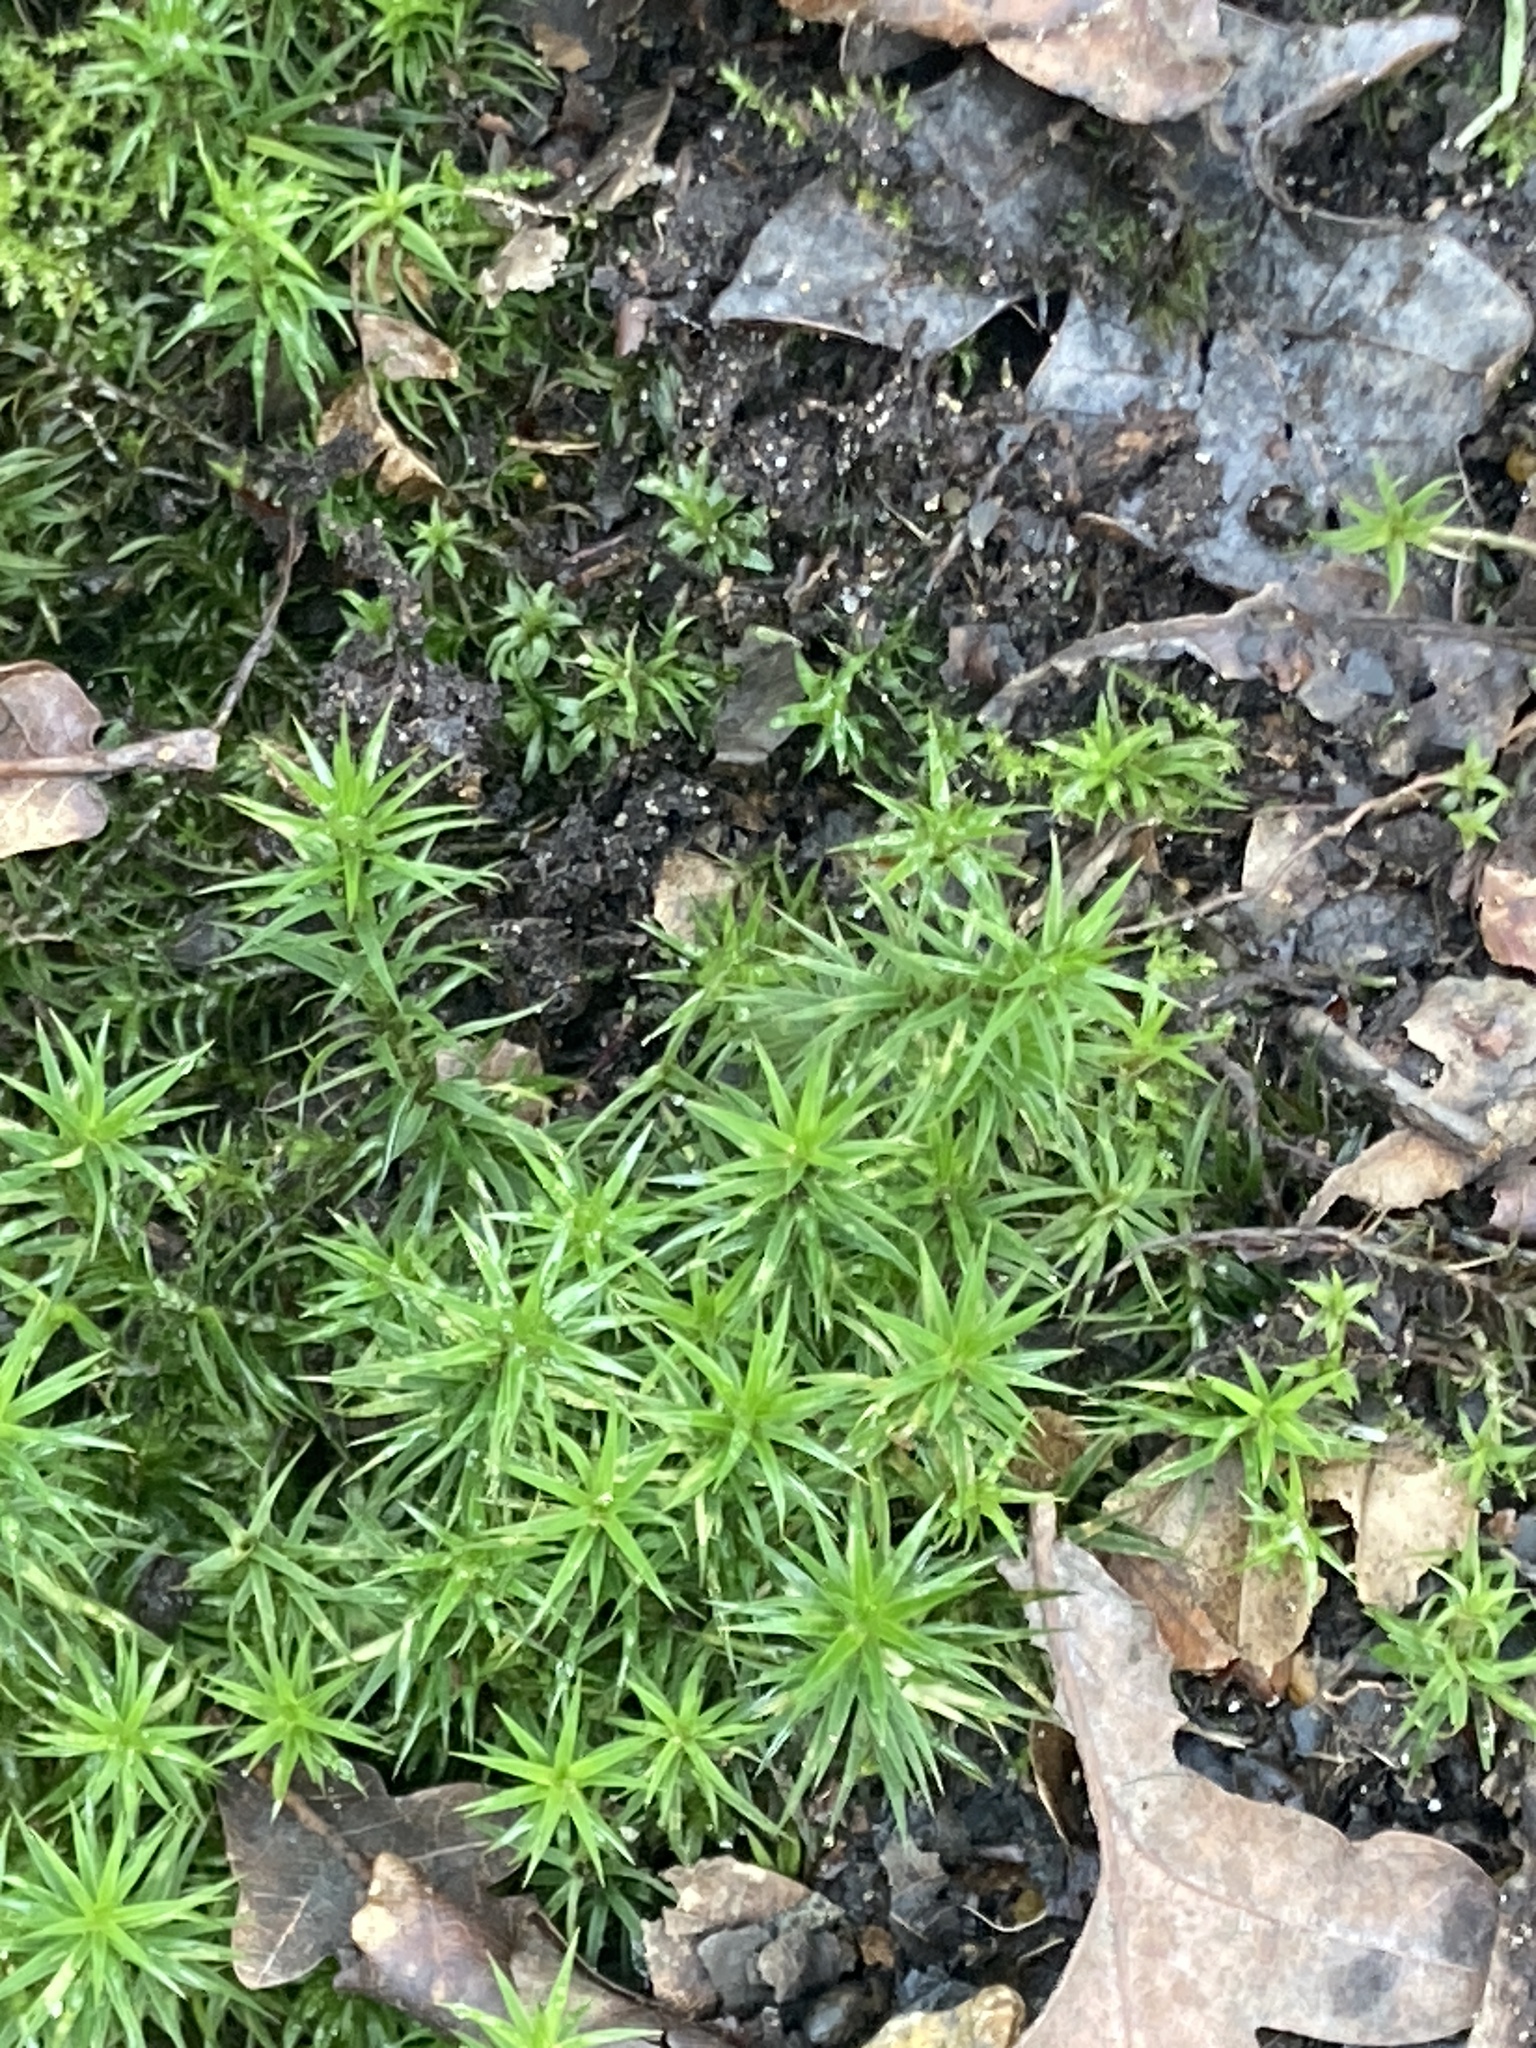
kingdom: Plantae
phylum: Bryophyta
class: Polytrichopsida
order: Polytrichales
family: Polytrichaceae
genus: Polytrichum
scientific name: Polytrichum formosum
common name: Bank haircap moss
